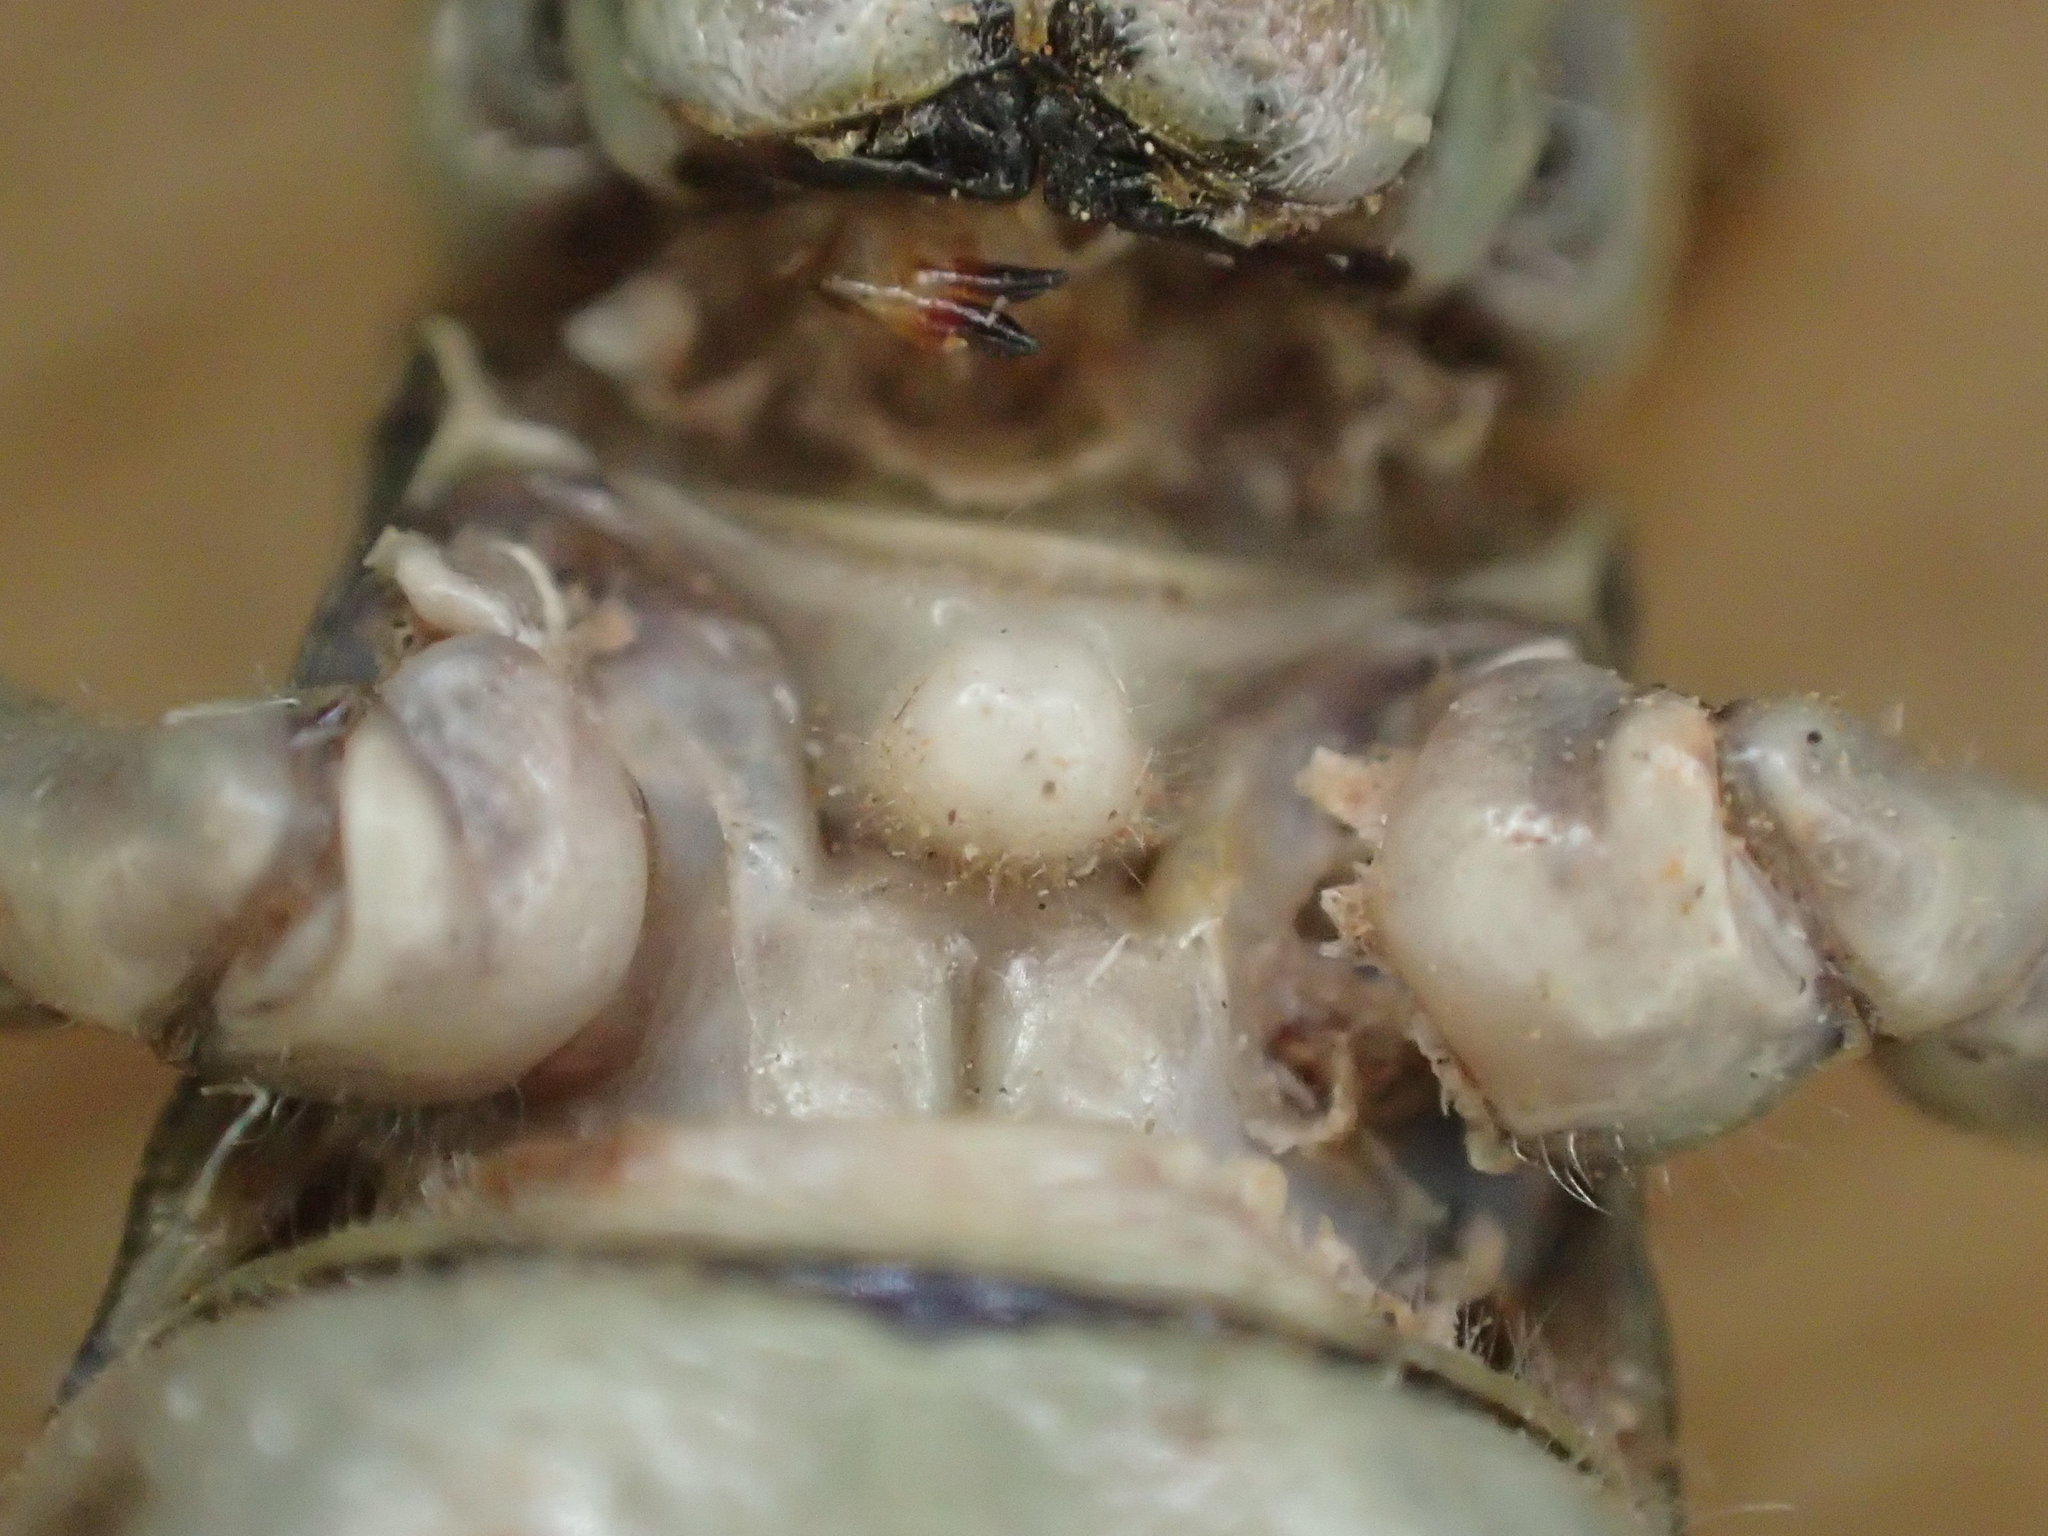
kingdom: Animalia
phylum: Arthropoda
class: Insecta
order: Orthoptera
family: Acrididae
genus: Macrolobalia
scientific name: Macrolobalia ocellata
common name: Gaudy acacia grasshopper
